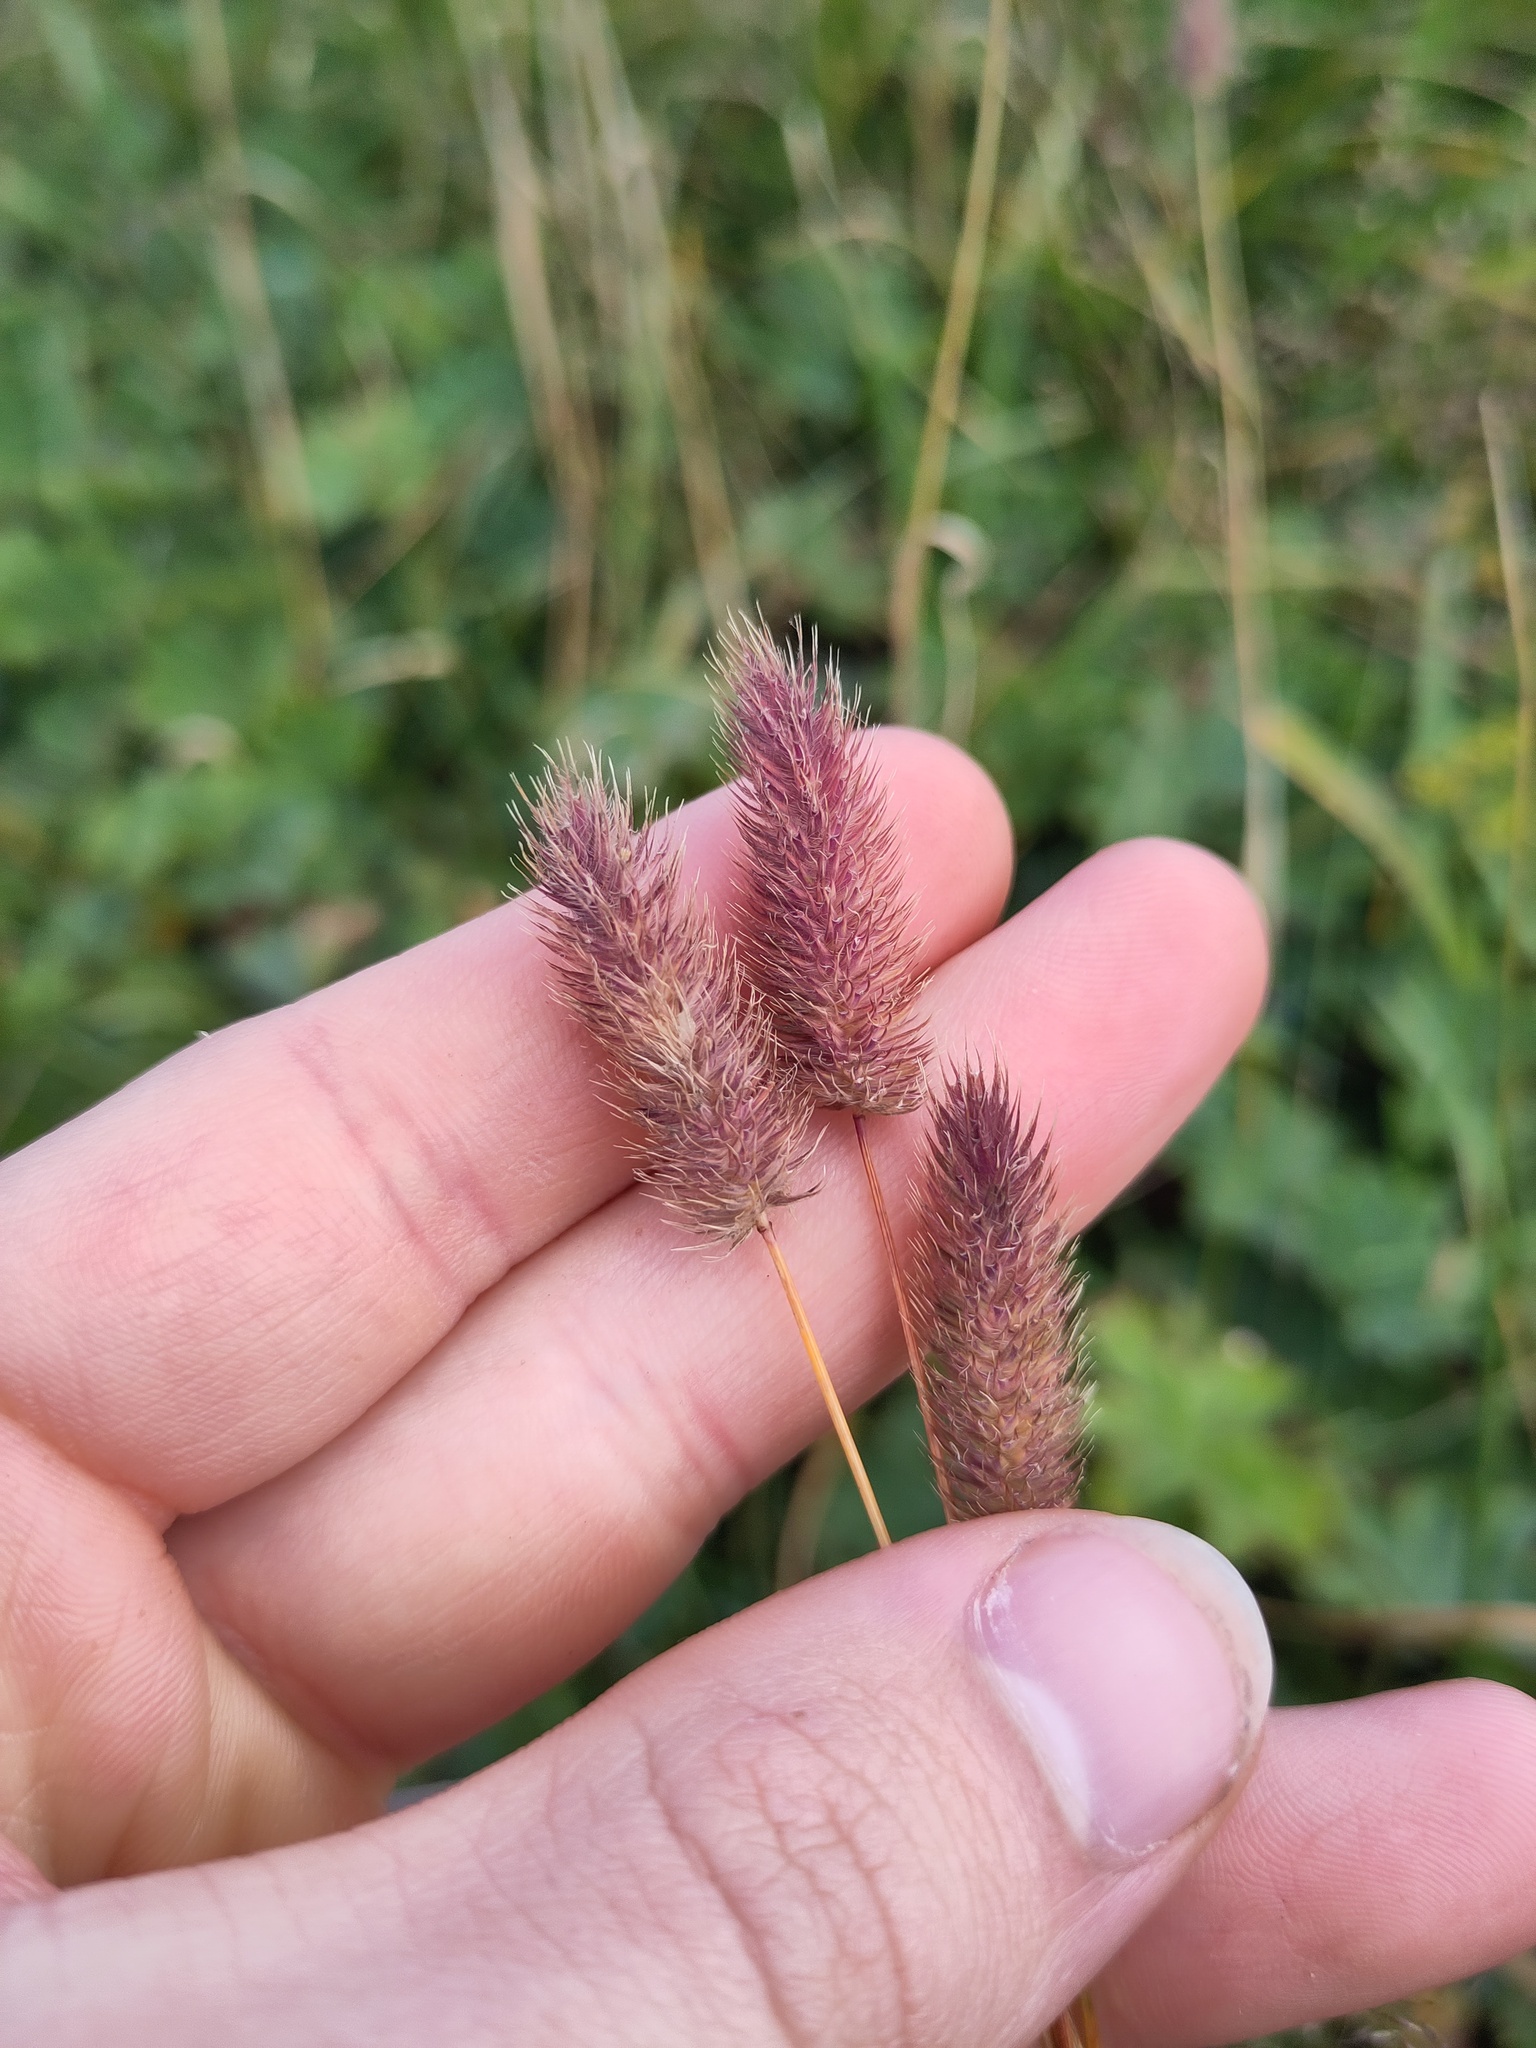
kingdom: Plantae
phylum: Tracheophyta
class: Liliopsida
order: Poales
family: Poaceae
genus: Phleum
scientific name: Phleum alpinum
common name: Alpine cat's-tail
